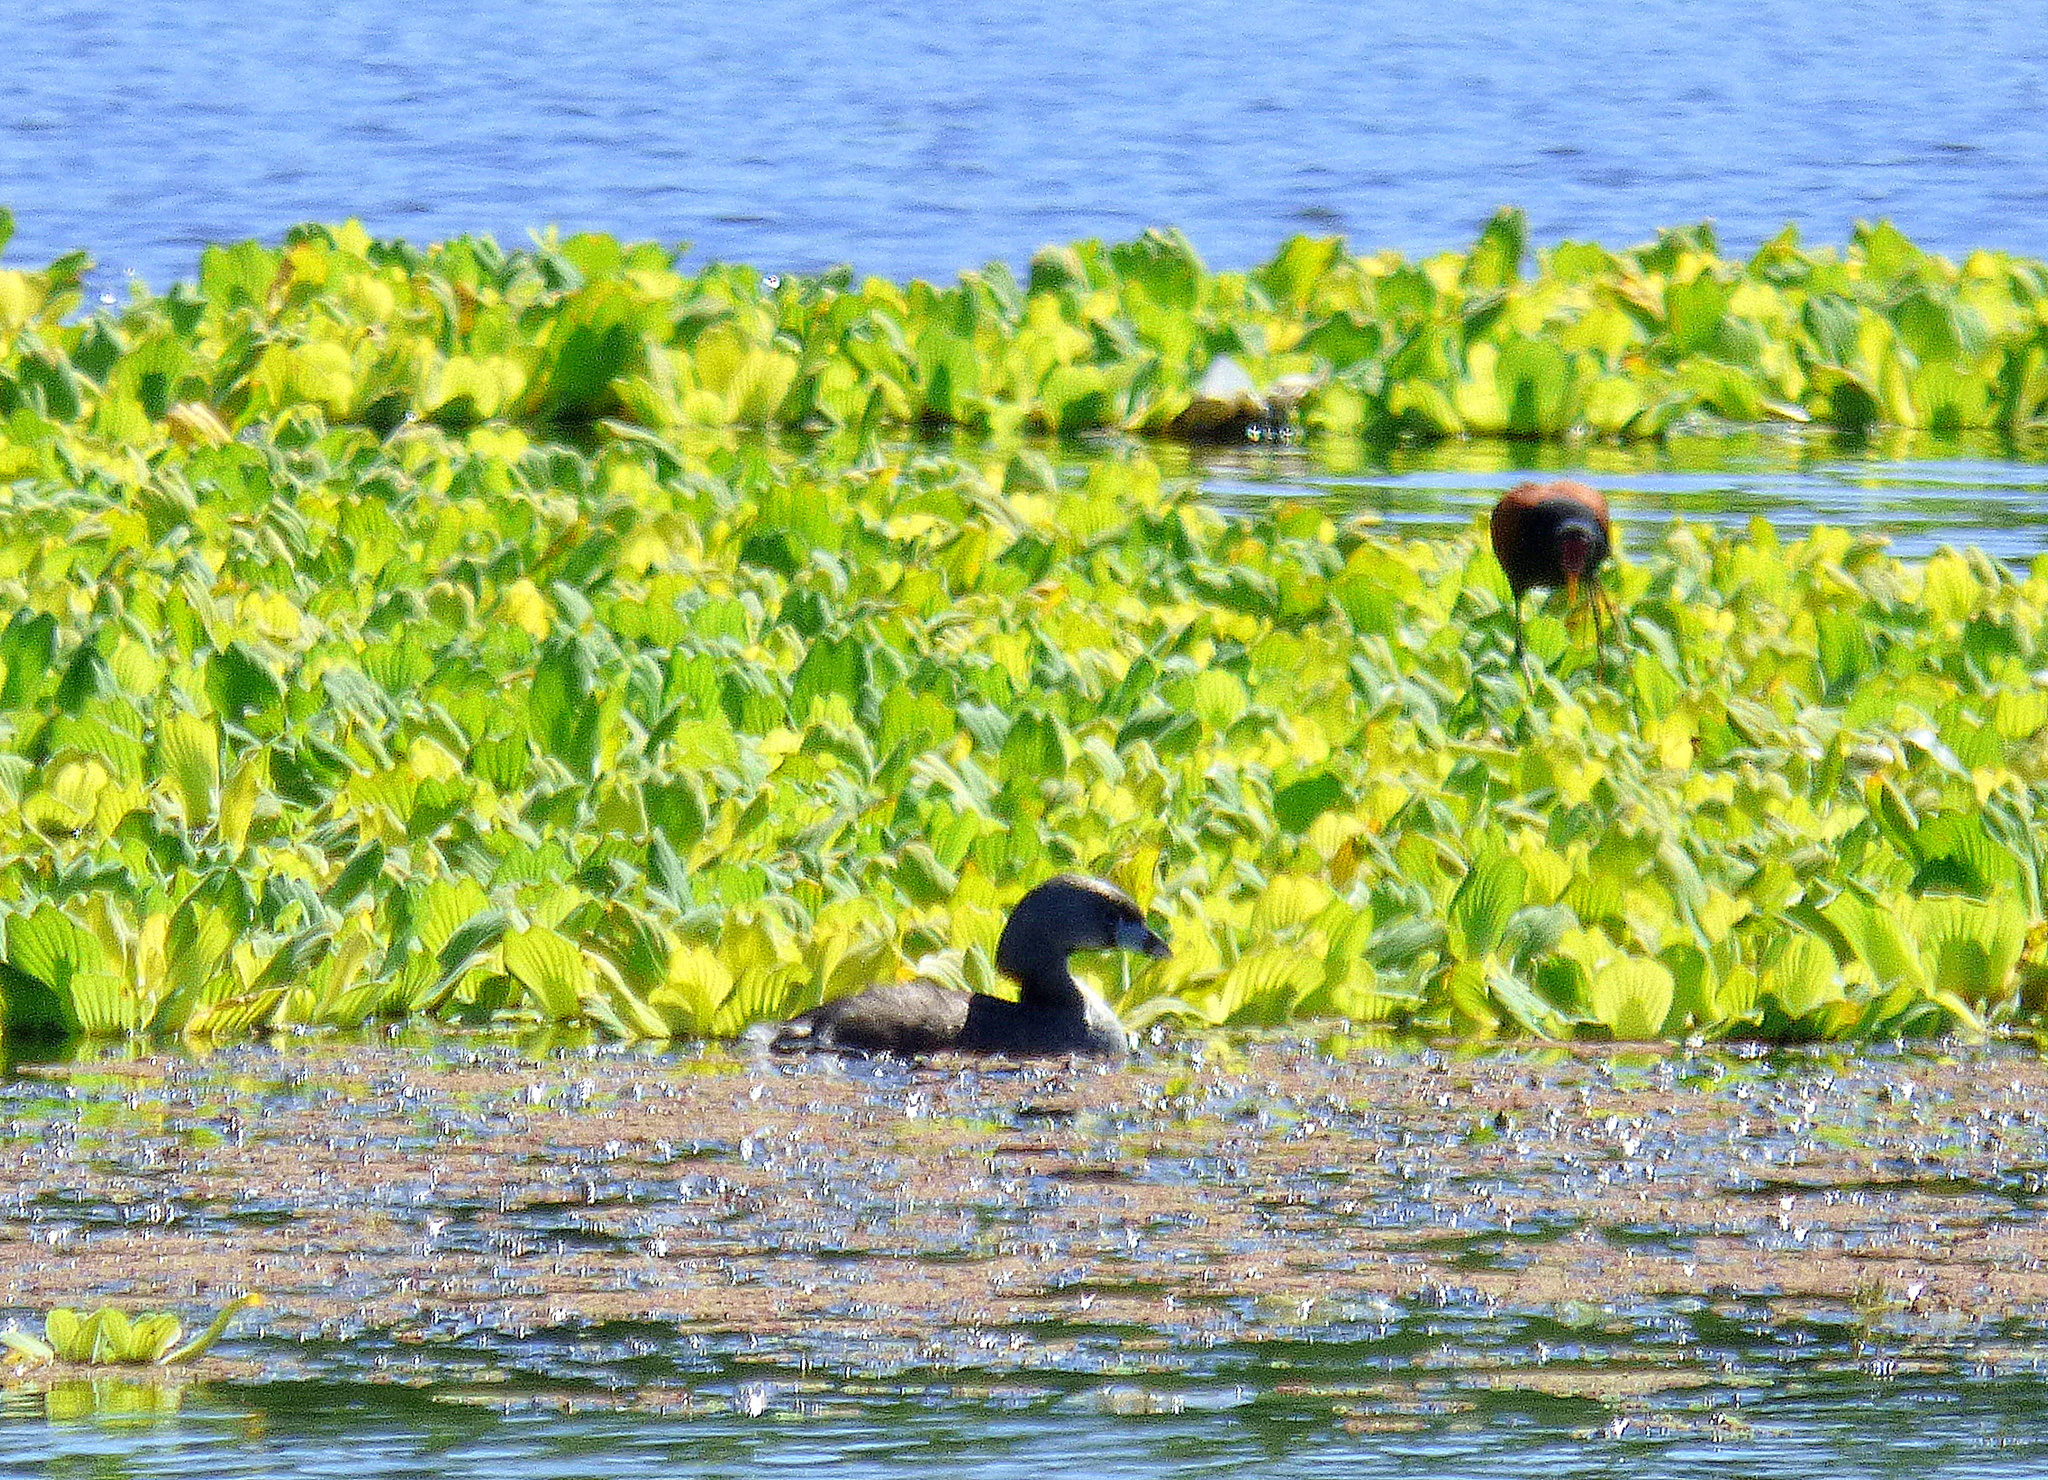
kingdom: Animalia
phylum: Chordata
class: Aves
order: Podicipediformes
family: Podicipedidae
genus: Podilymbus
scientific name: Podilymbus podiceps
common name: Pied-billed grebe
